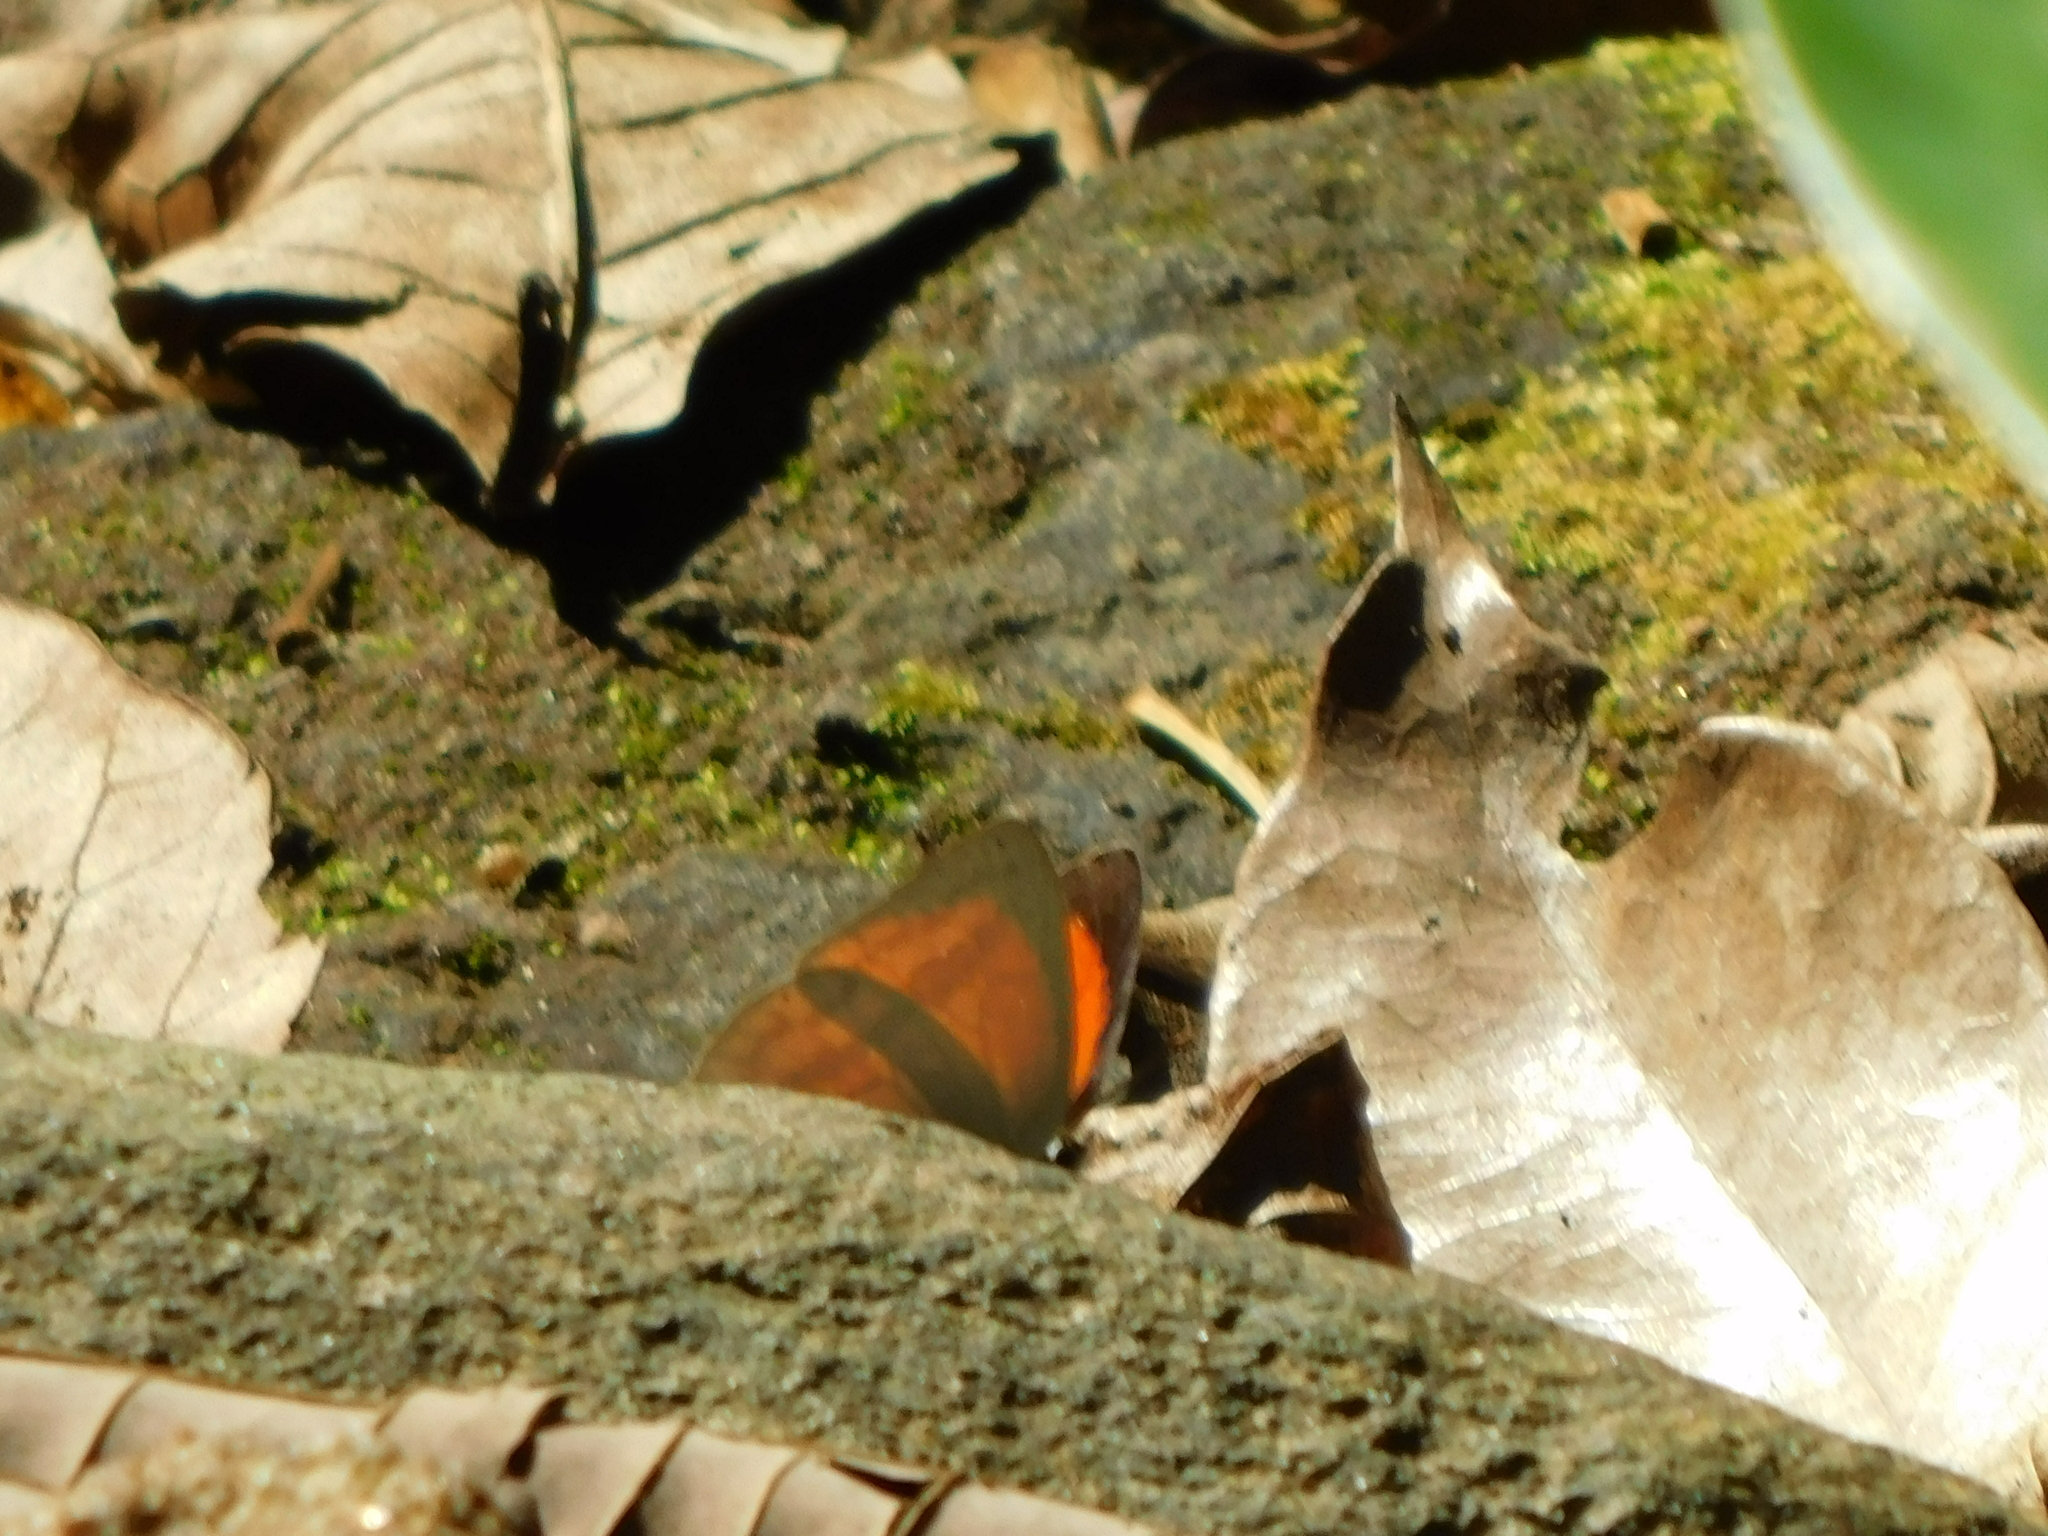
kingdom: Animalia
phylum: Arthropoda
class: Insecta
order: Lepidoptera
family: Lycaenidae
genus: Curetis
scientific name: Curetis thetis
